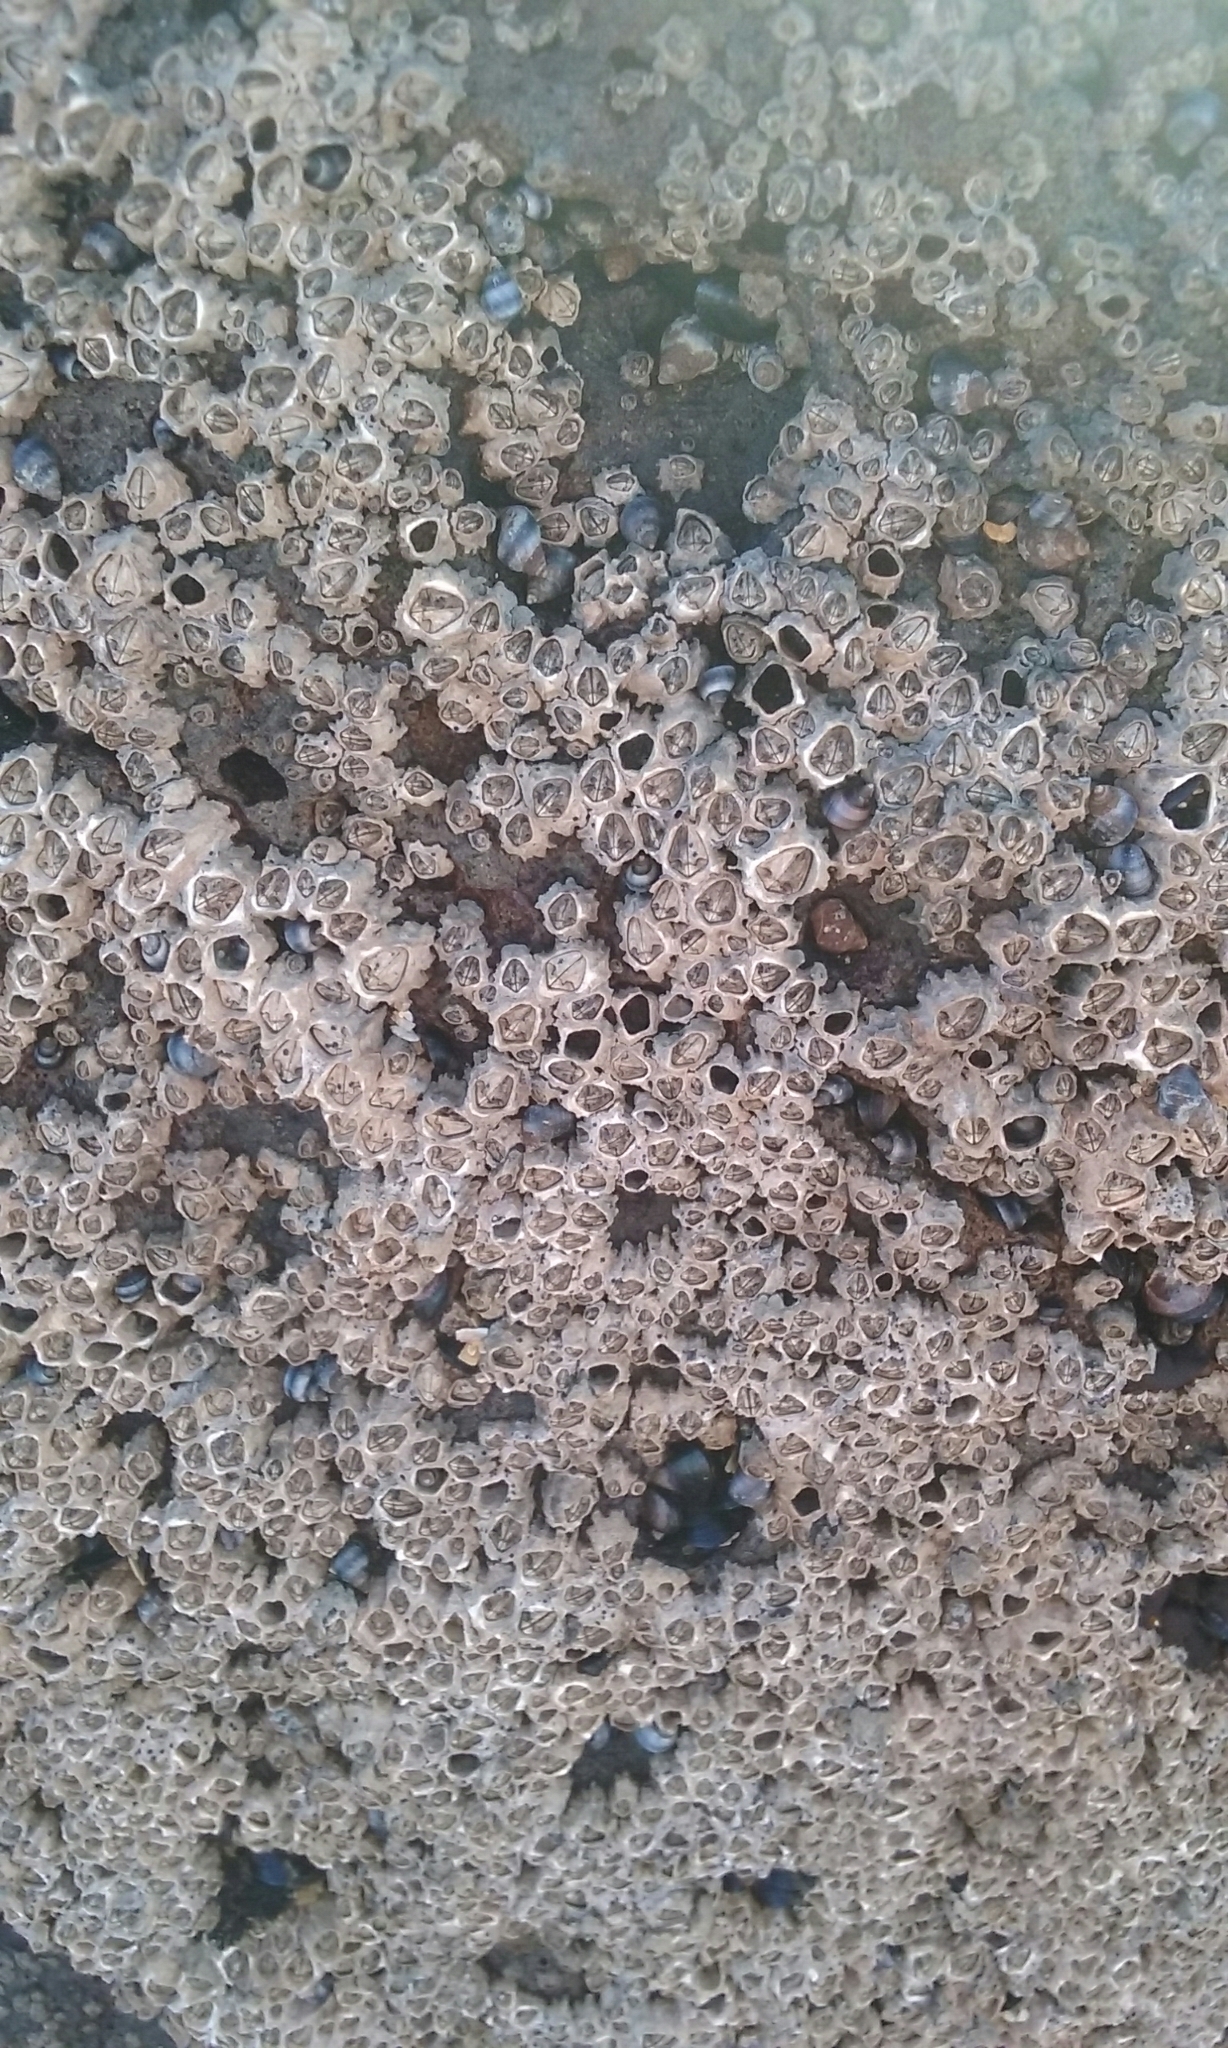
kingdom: Animalia
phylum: Arthropoda
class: Maxillopoda
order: Sessilia
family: Chthamalidae
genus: Chamaesipho
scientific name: Chamaesipho columna
